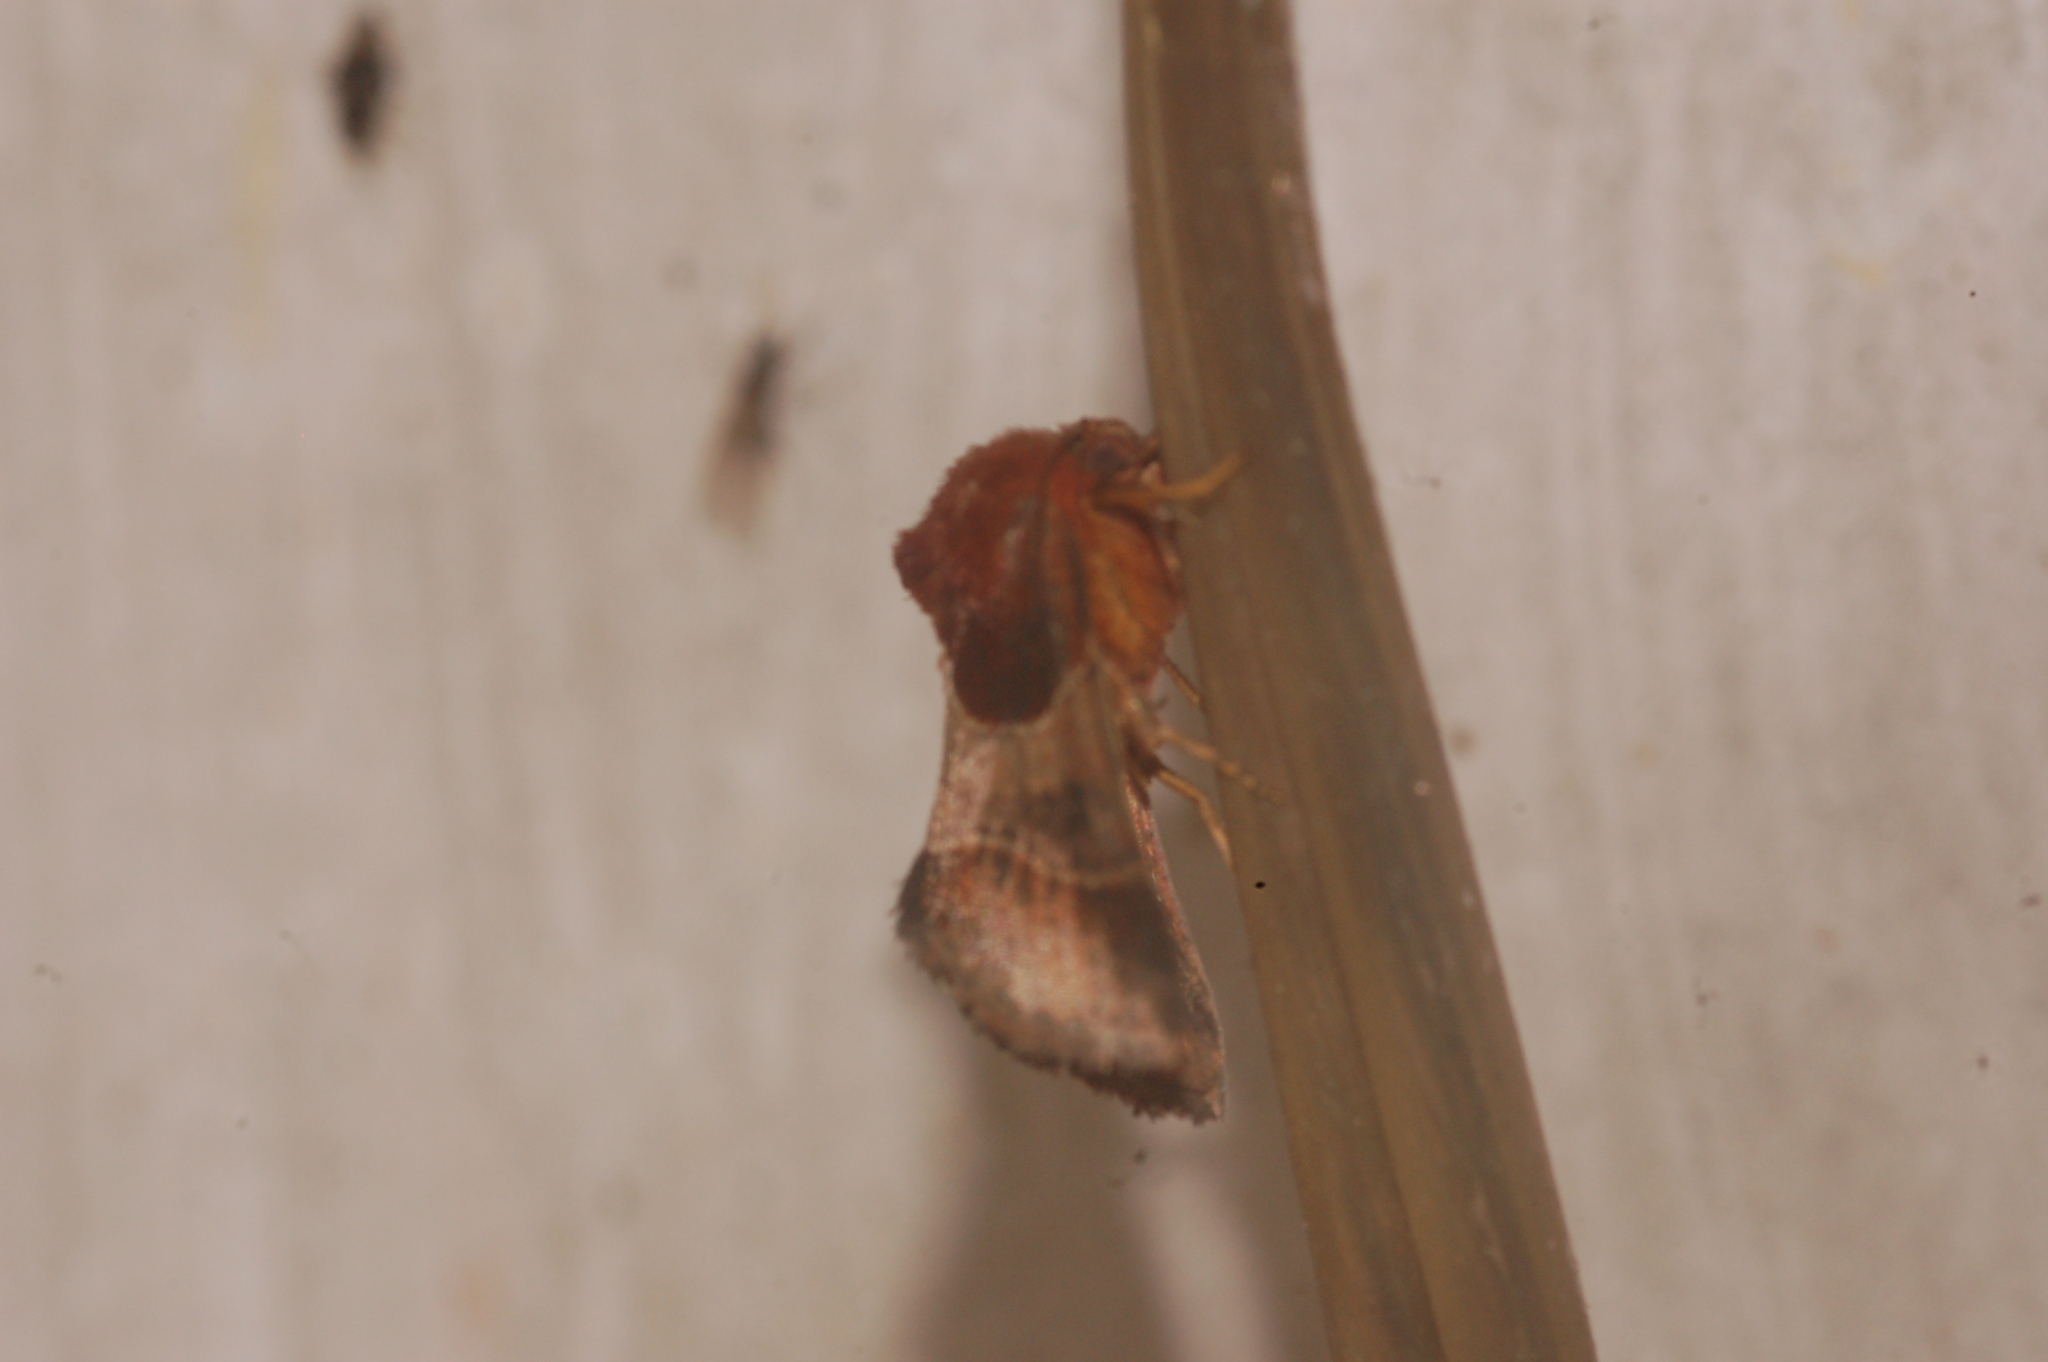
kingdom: Animalia
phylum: Arthropoda
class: Insecta
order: Lepidoptera
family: Noctuidae
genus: Schinia
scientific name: Schinia arcigera
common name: Arcigera flower moth
